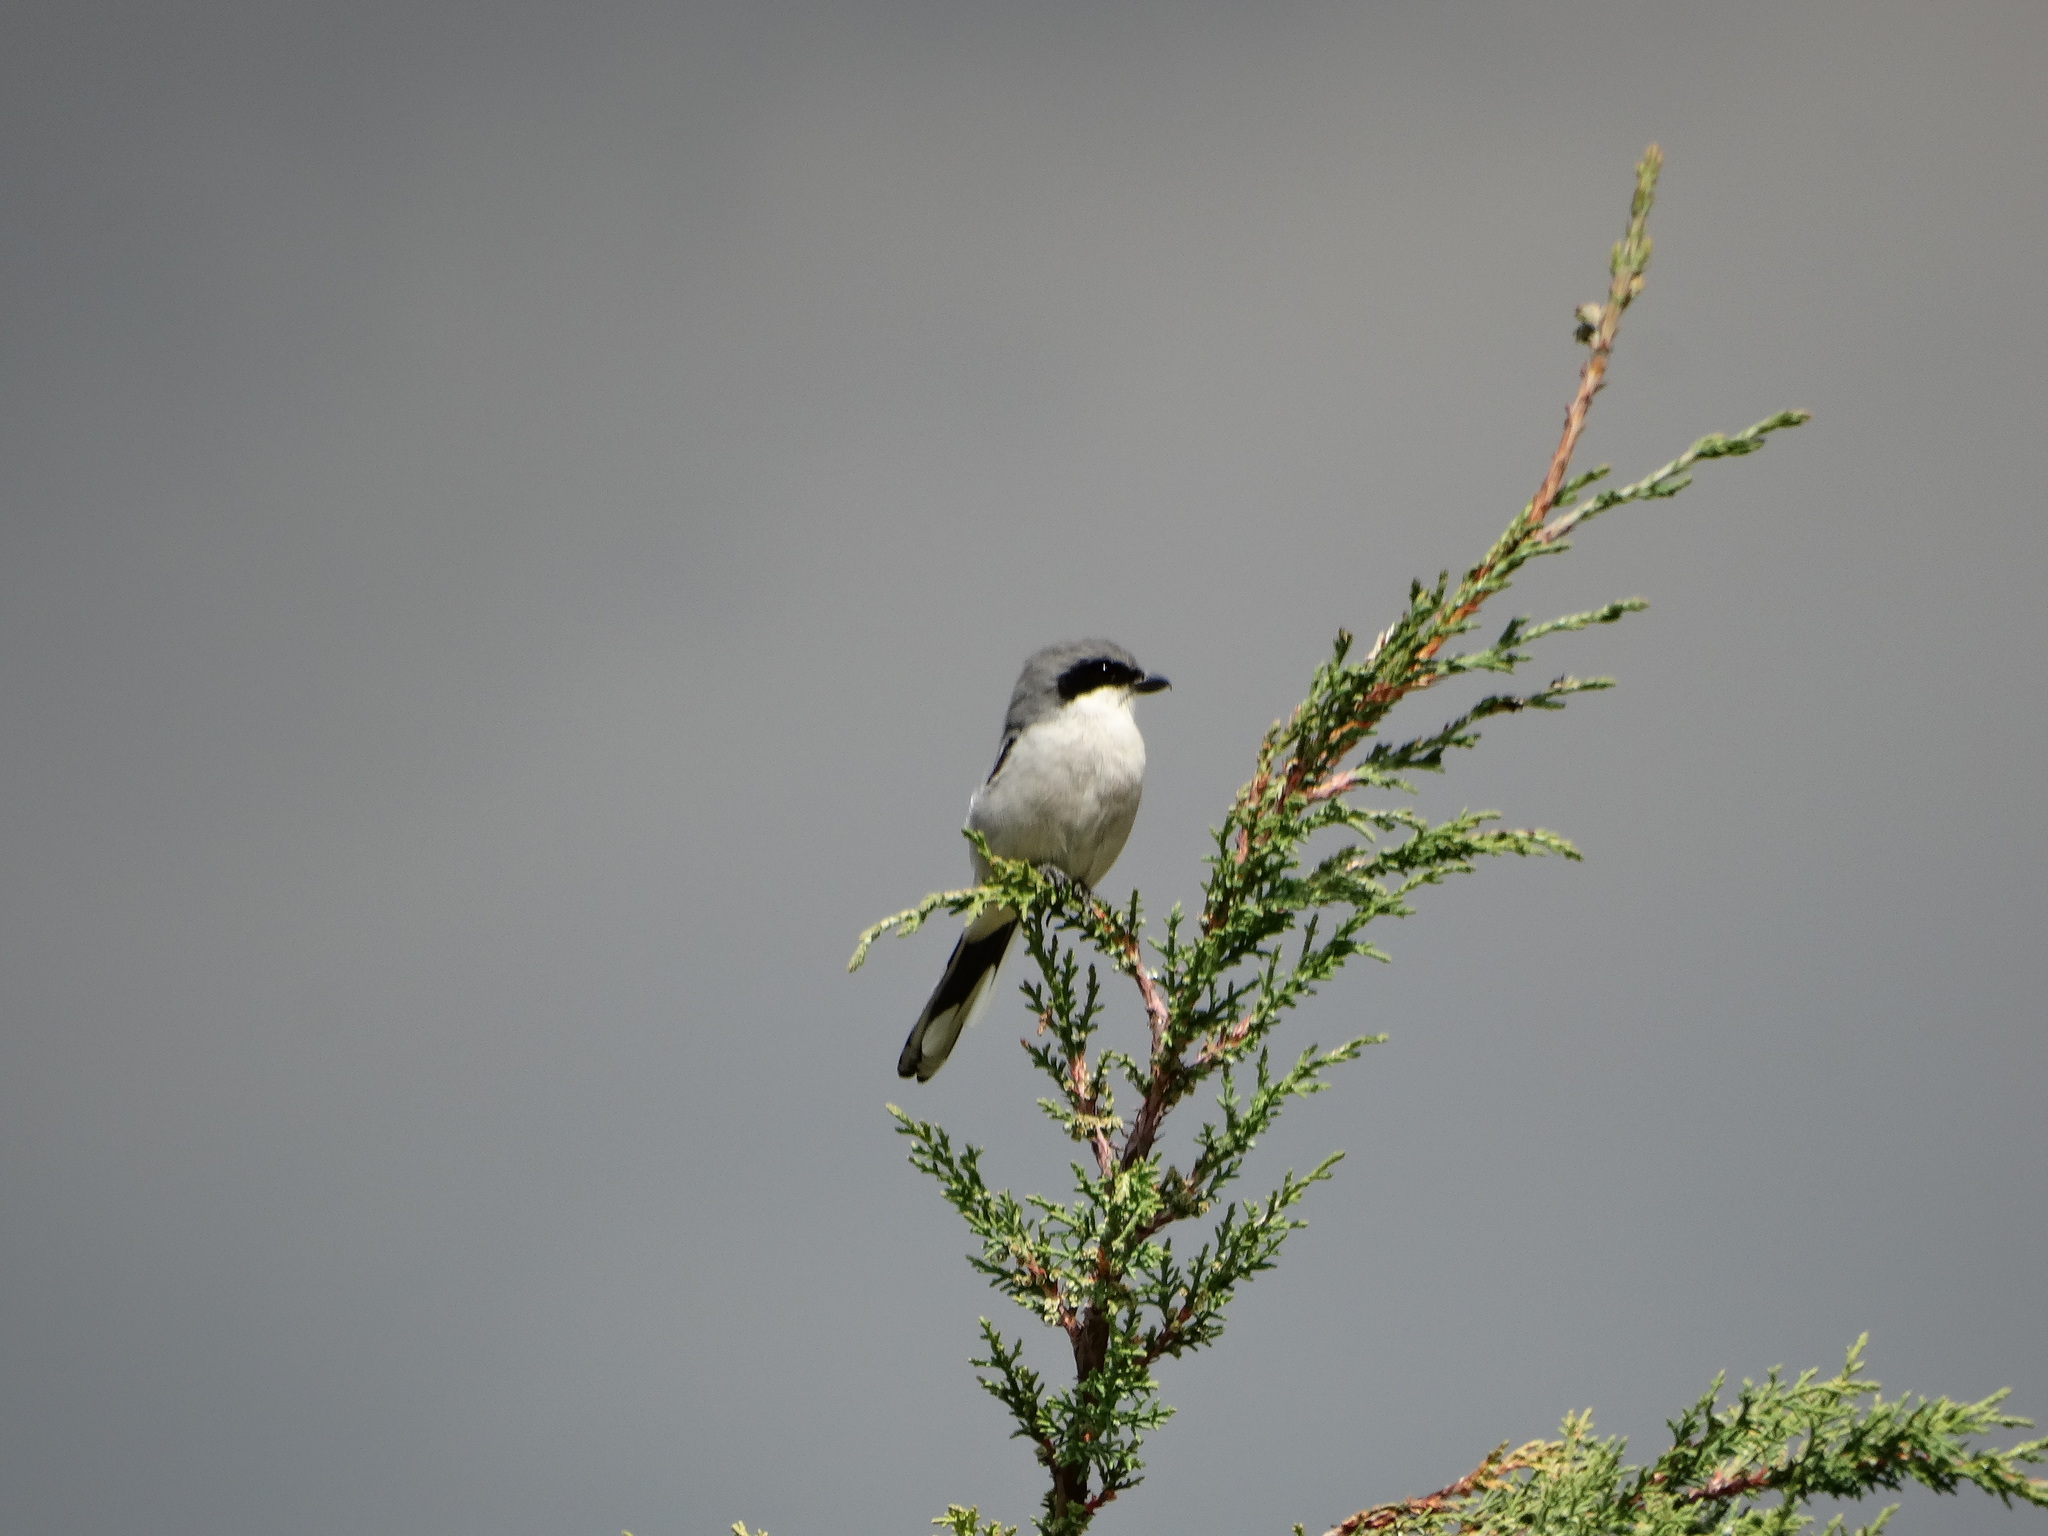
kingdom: Animalia
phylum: Chordata
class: Aves
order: Passeriformes
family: Laniidae
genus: Lanius
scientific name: Lanius ludovicianus
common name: Loggerhead shrike
